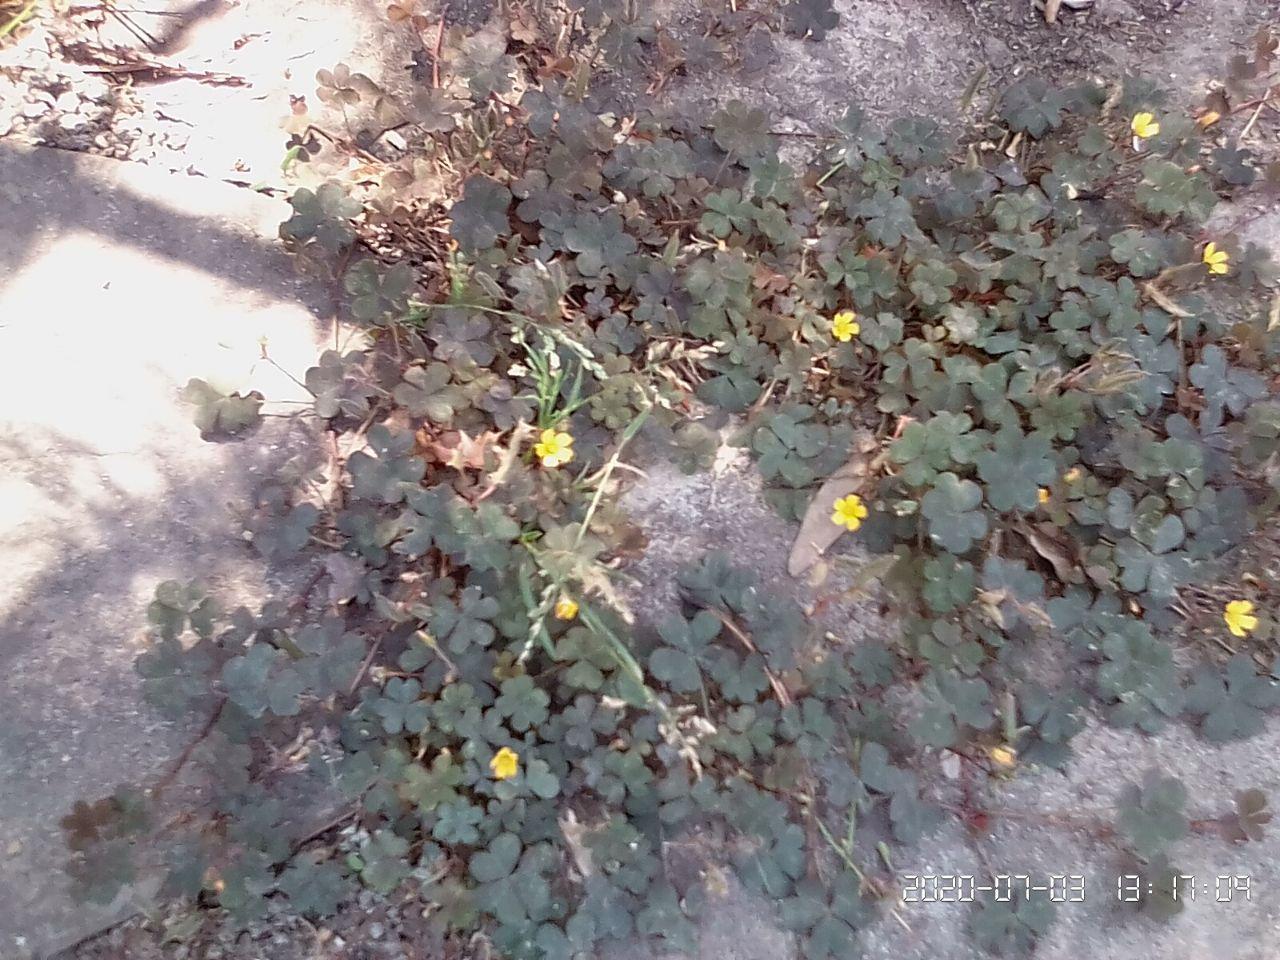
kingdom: Plantae
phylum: Tracheophyta
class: Magnoliopsida
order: Oxalidales
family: Oxalidaceae
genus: Oxalis
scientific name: Oxalis corniculata
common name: Procumbent yellow-sorrel
